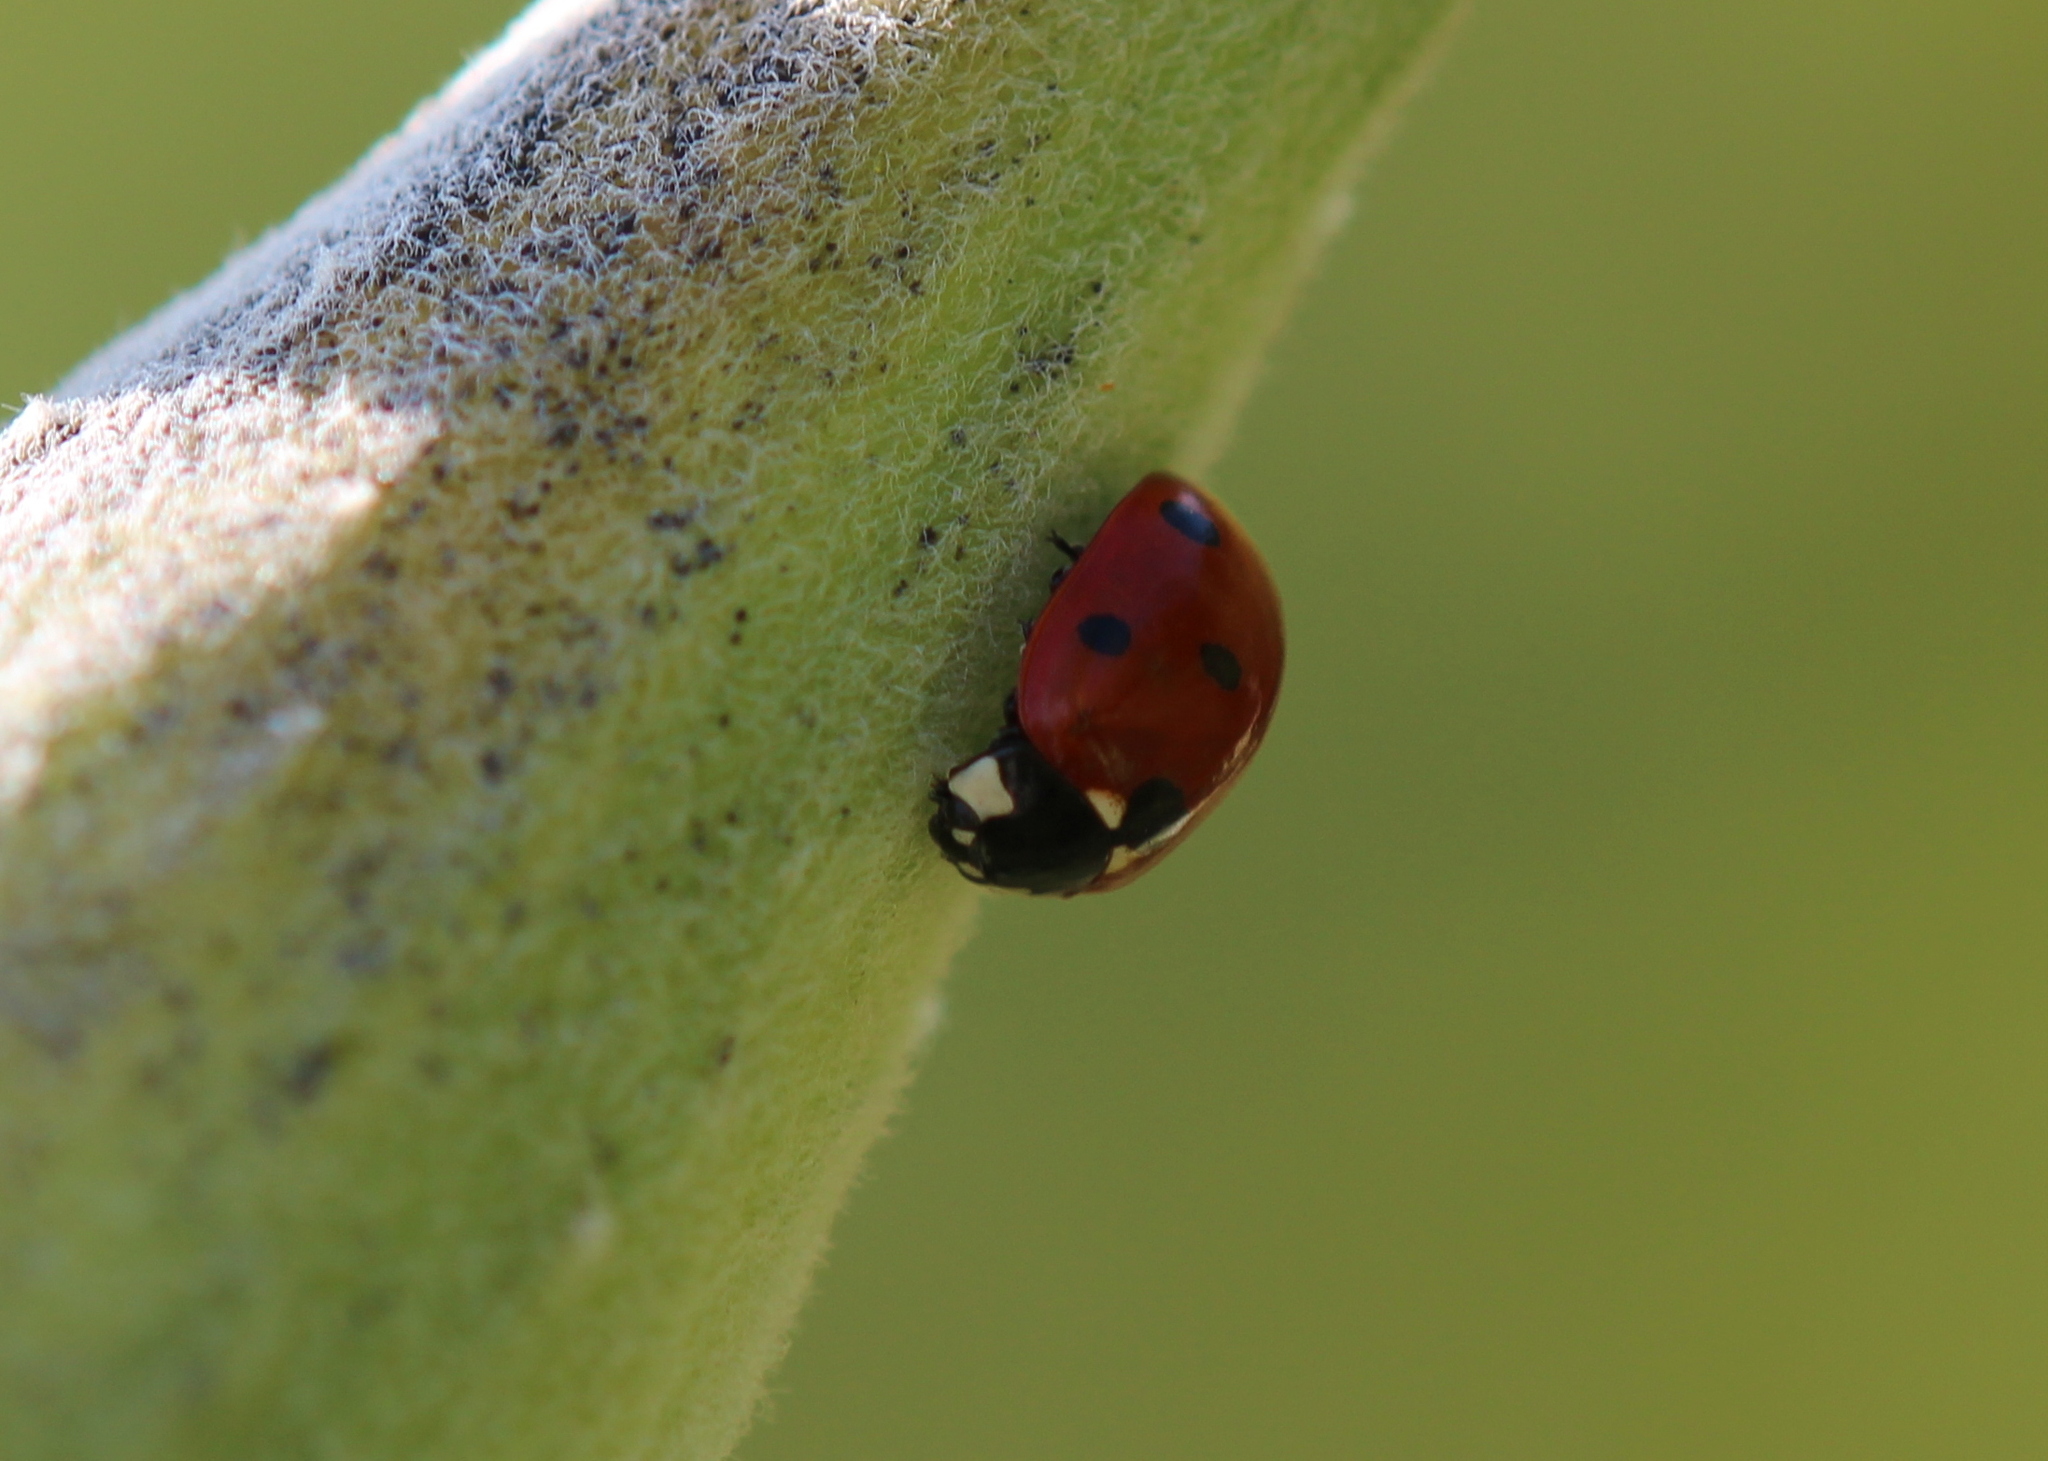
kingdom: Animalia
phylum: Arthropoda
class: Insecta
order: Coleoptera
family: Coccinellidae
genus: Coccinella
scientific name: Coccinella septempunctata
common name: Sevenspotted lady beetle
